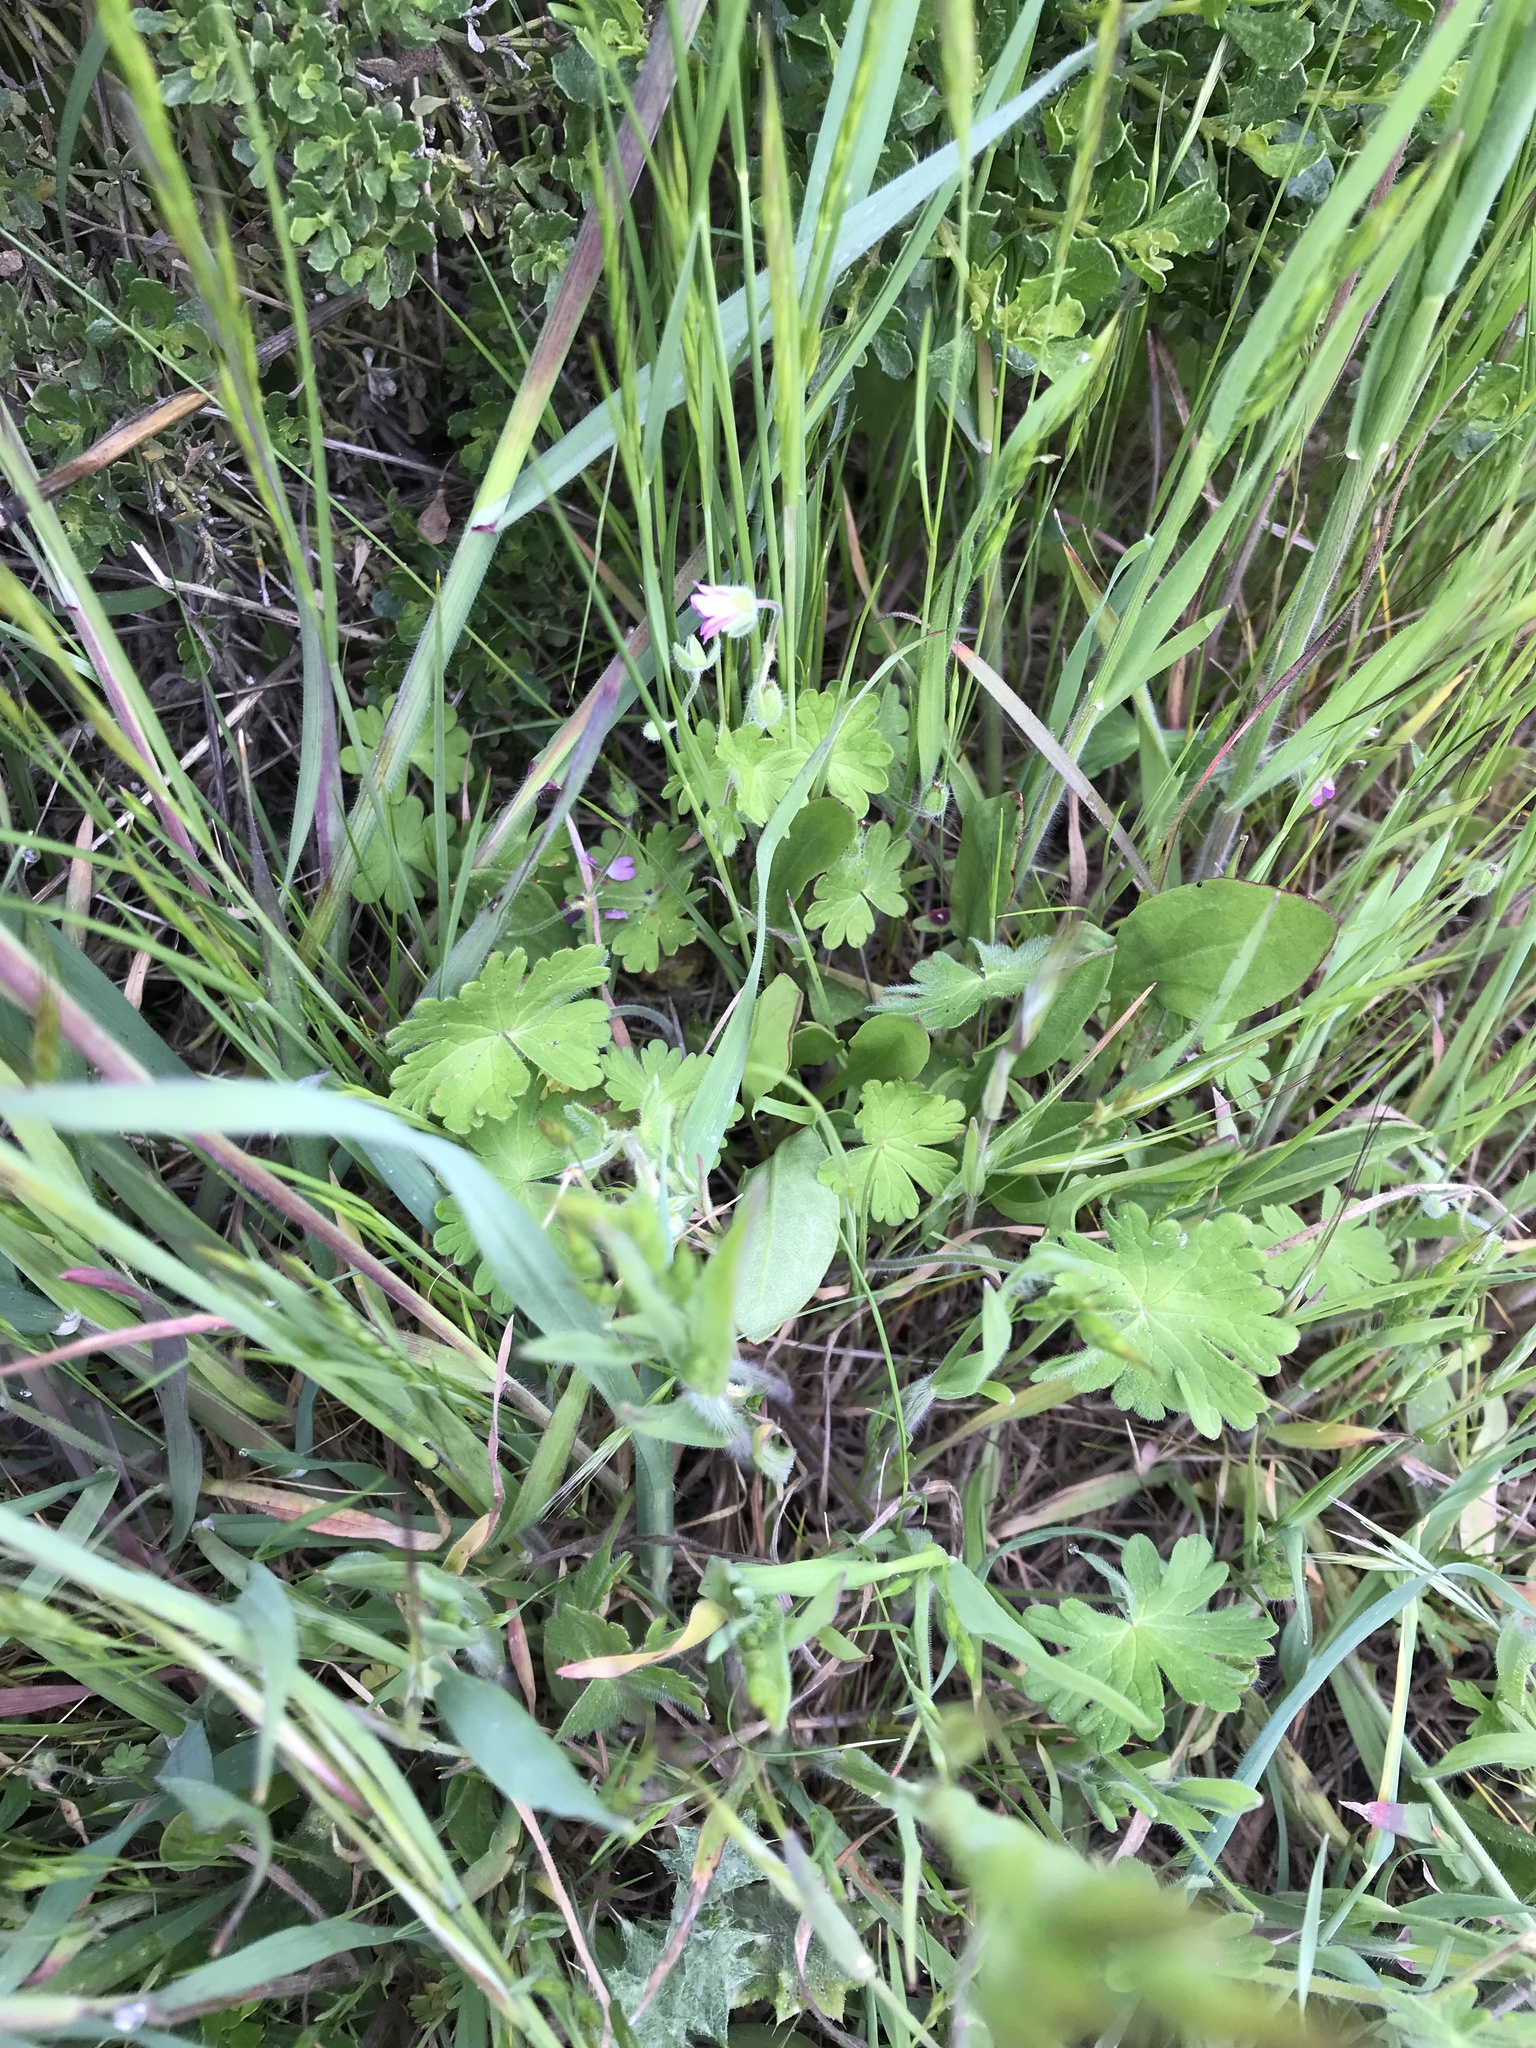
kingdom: Plantae
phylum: Tracheophyta
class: Magnoliopsida
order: Geraniales
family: Geraniaceae
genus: Geranium
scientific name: Geranium molle
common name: Dove's-foot crane's-bill
